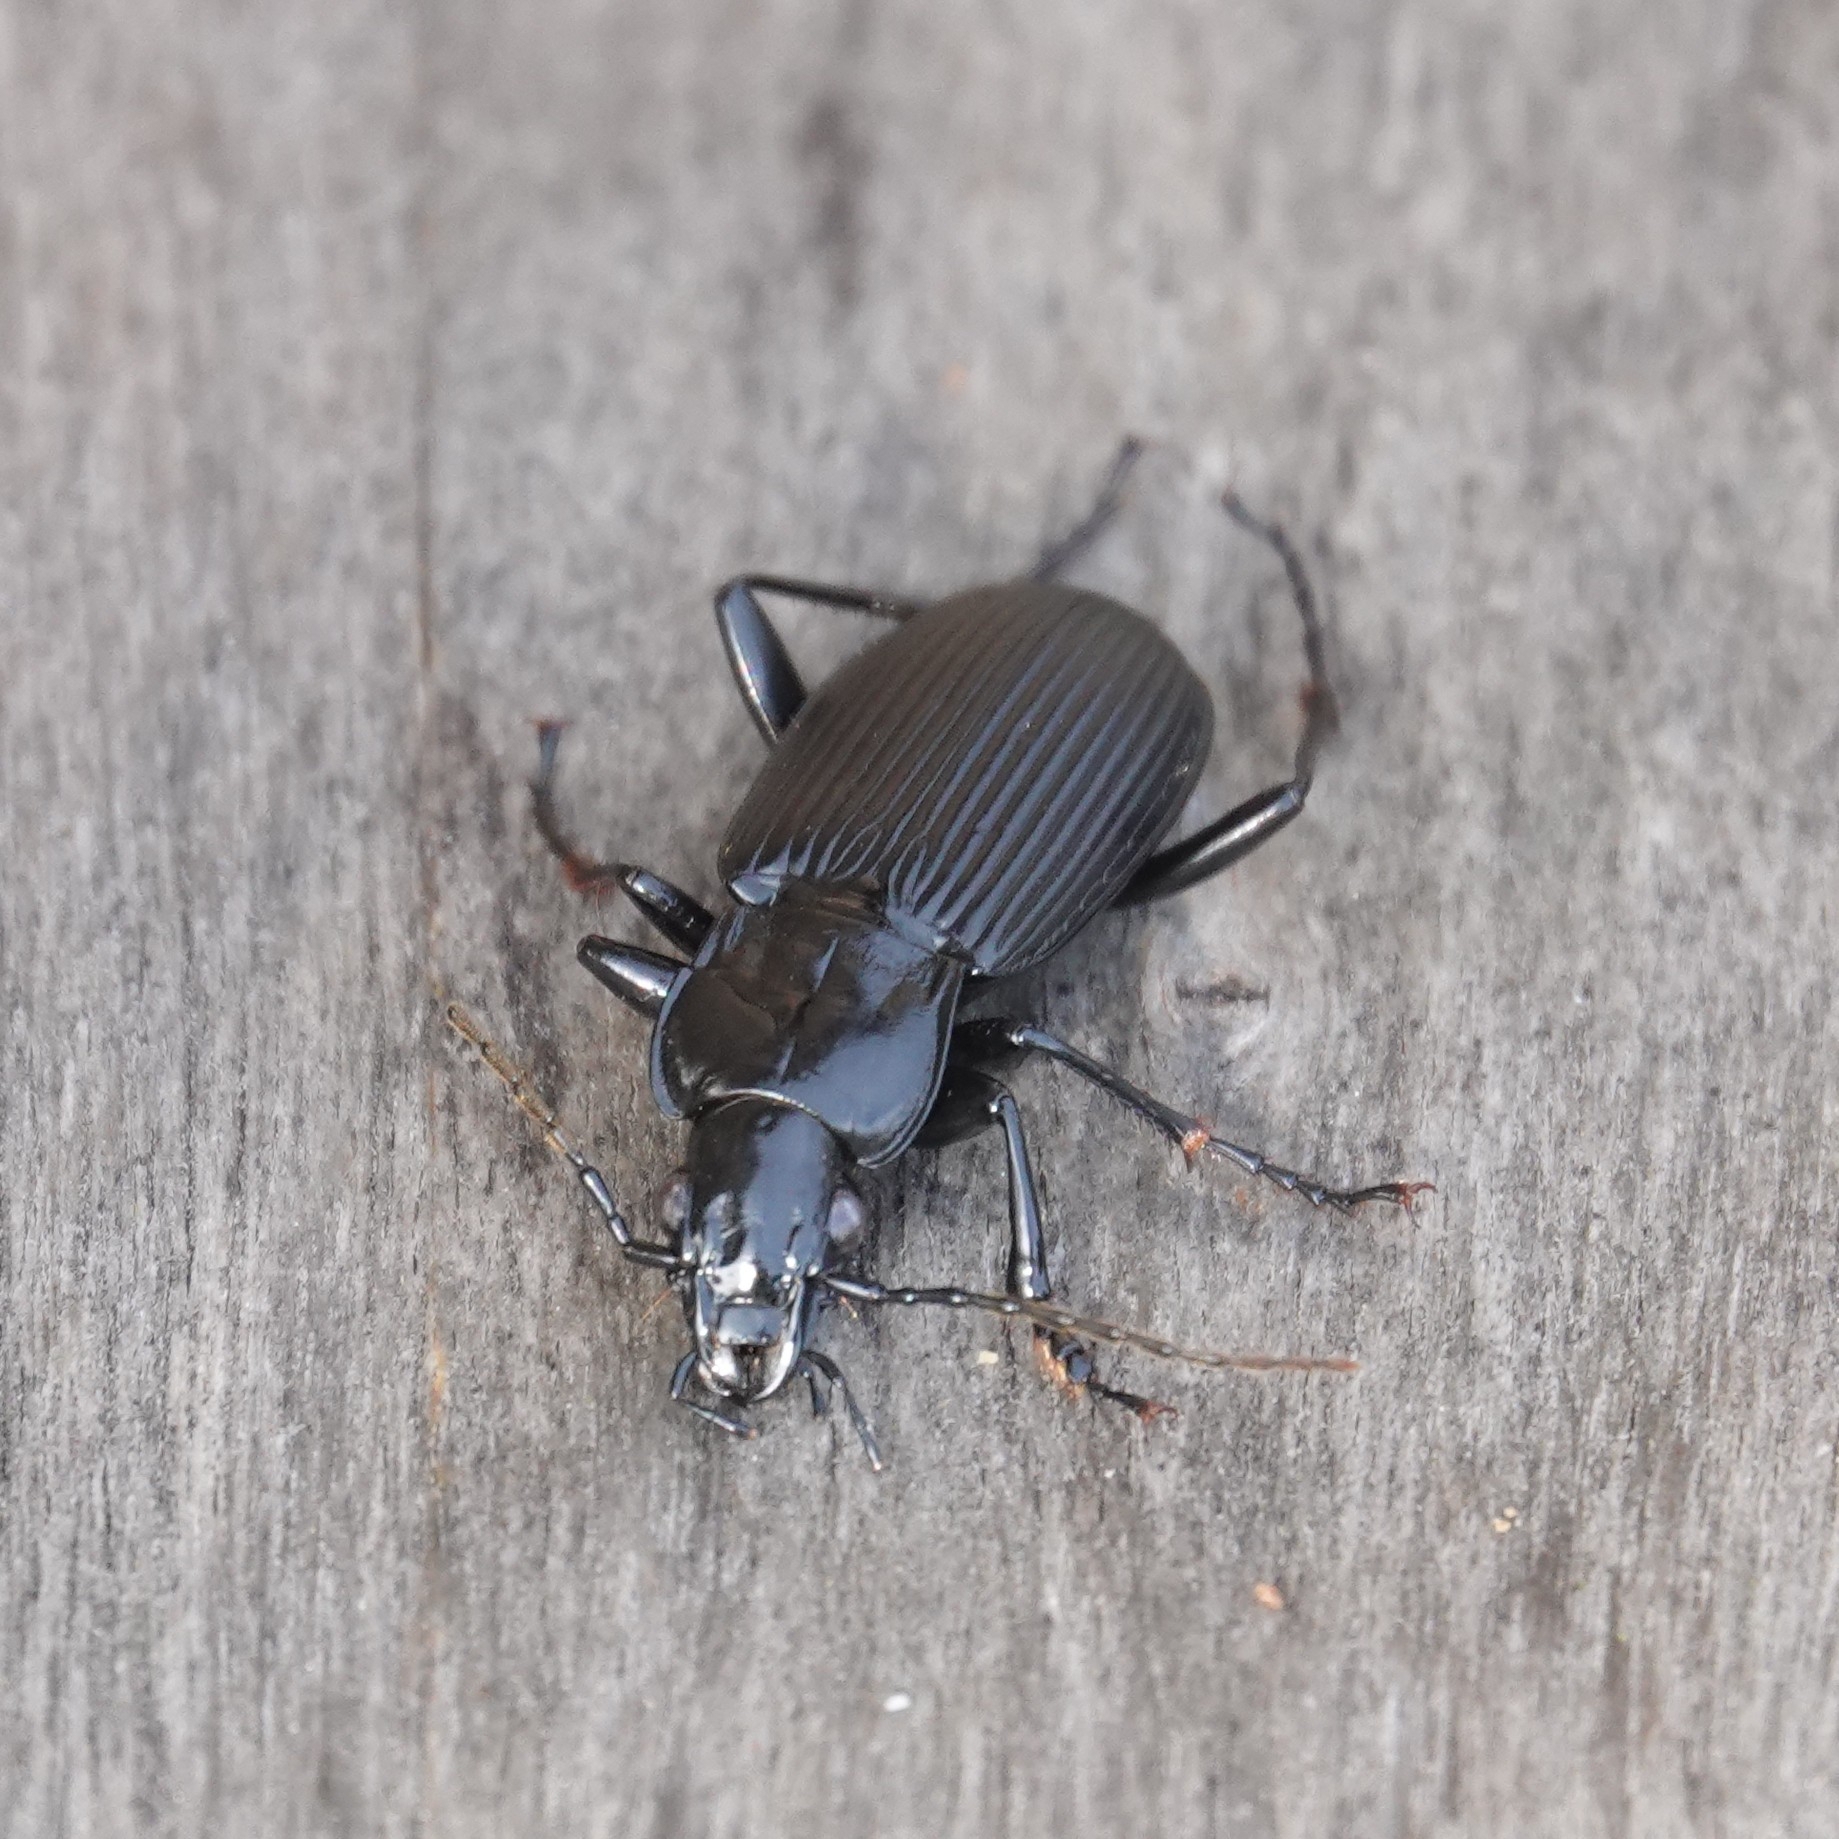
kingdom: Animalia
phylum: Arthropoda
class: Insecta
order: Coleoptera
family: Carabidae
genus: Pterostichus
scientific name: Pterostichus niger
